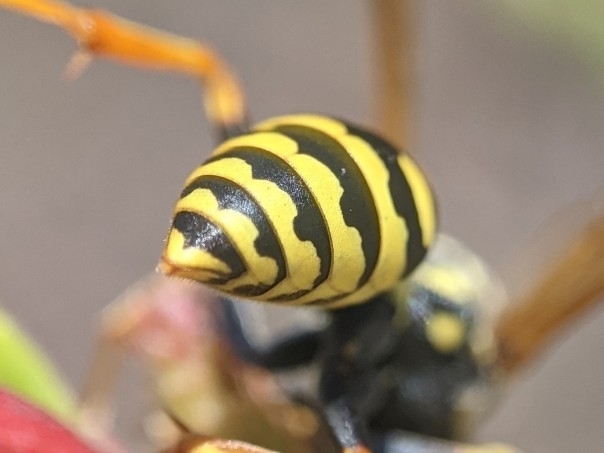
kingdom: Animalia
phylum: Arthropoda
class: Insecta
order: Hymenoptera
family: Eumenidae
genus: Polistes
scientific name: Polistes dominula
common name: Paper wasp
